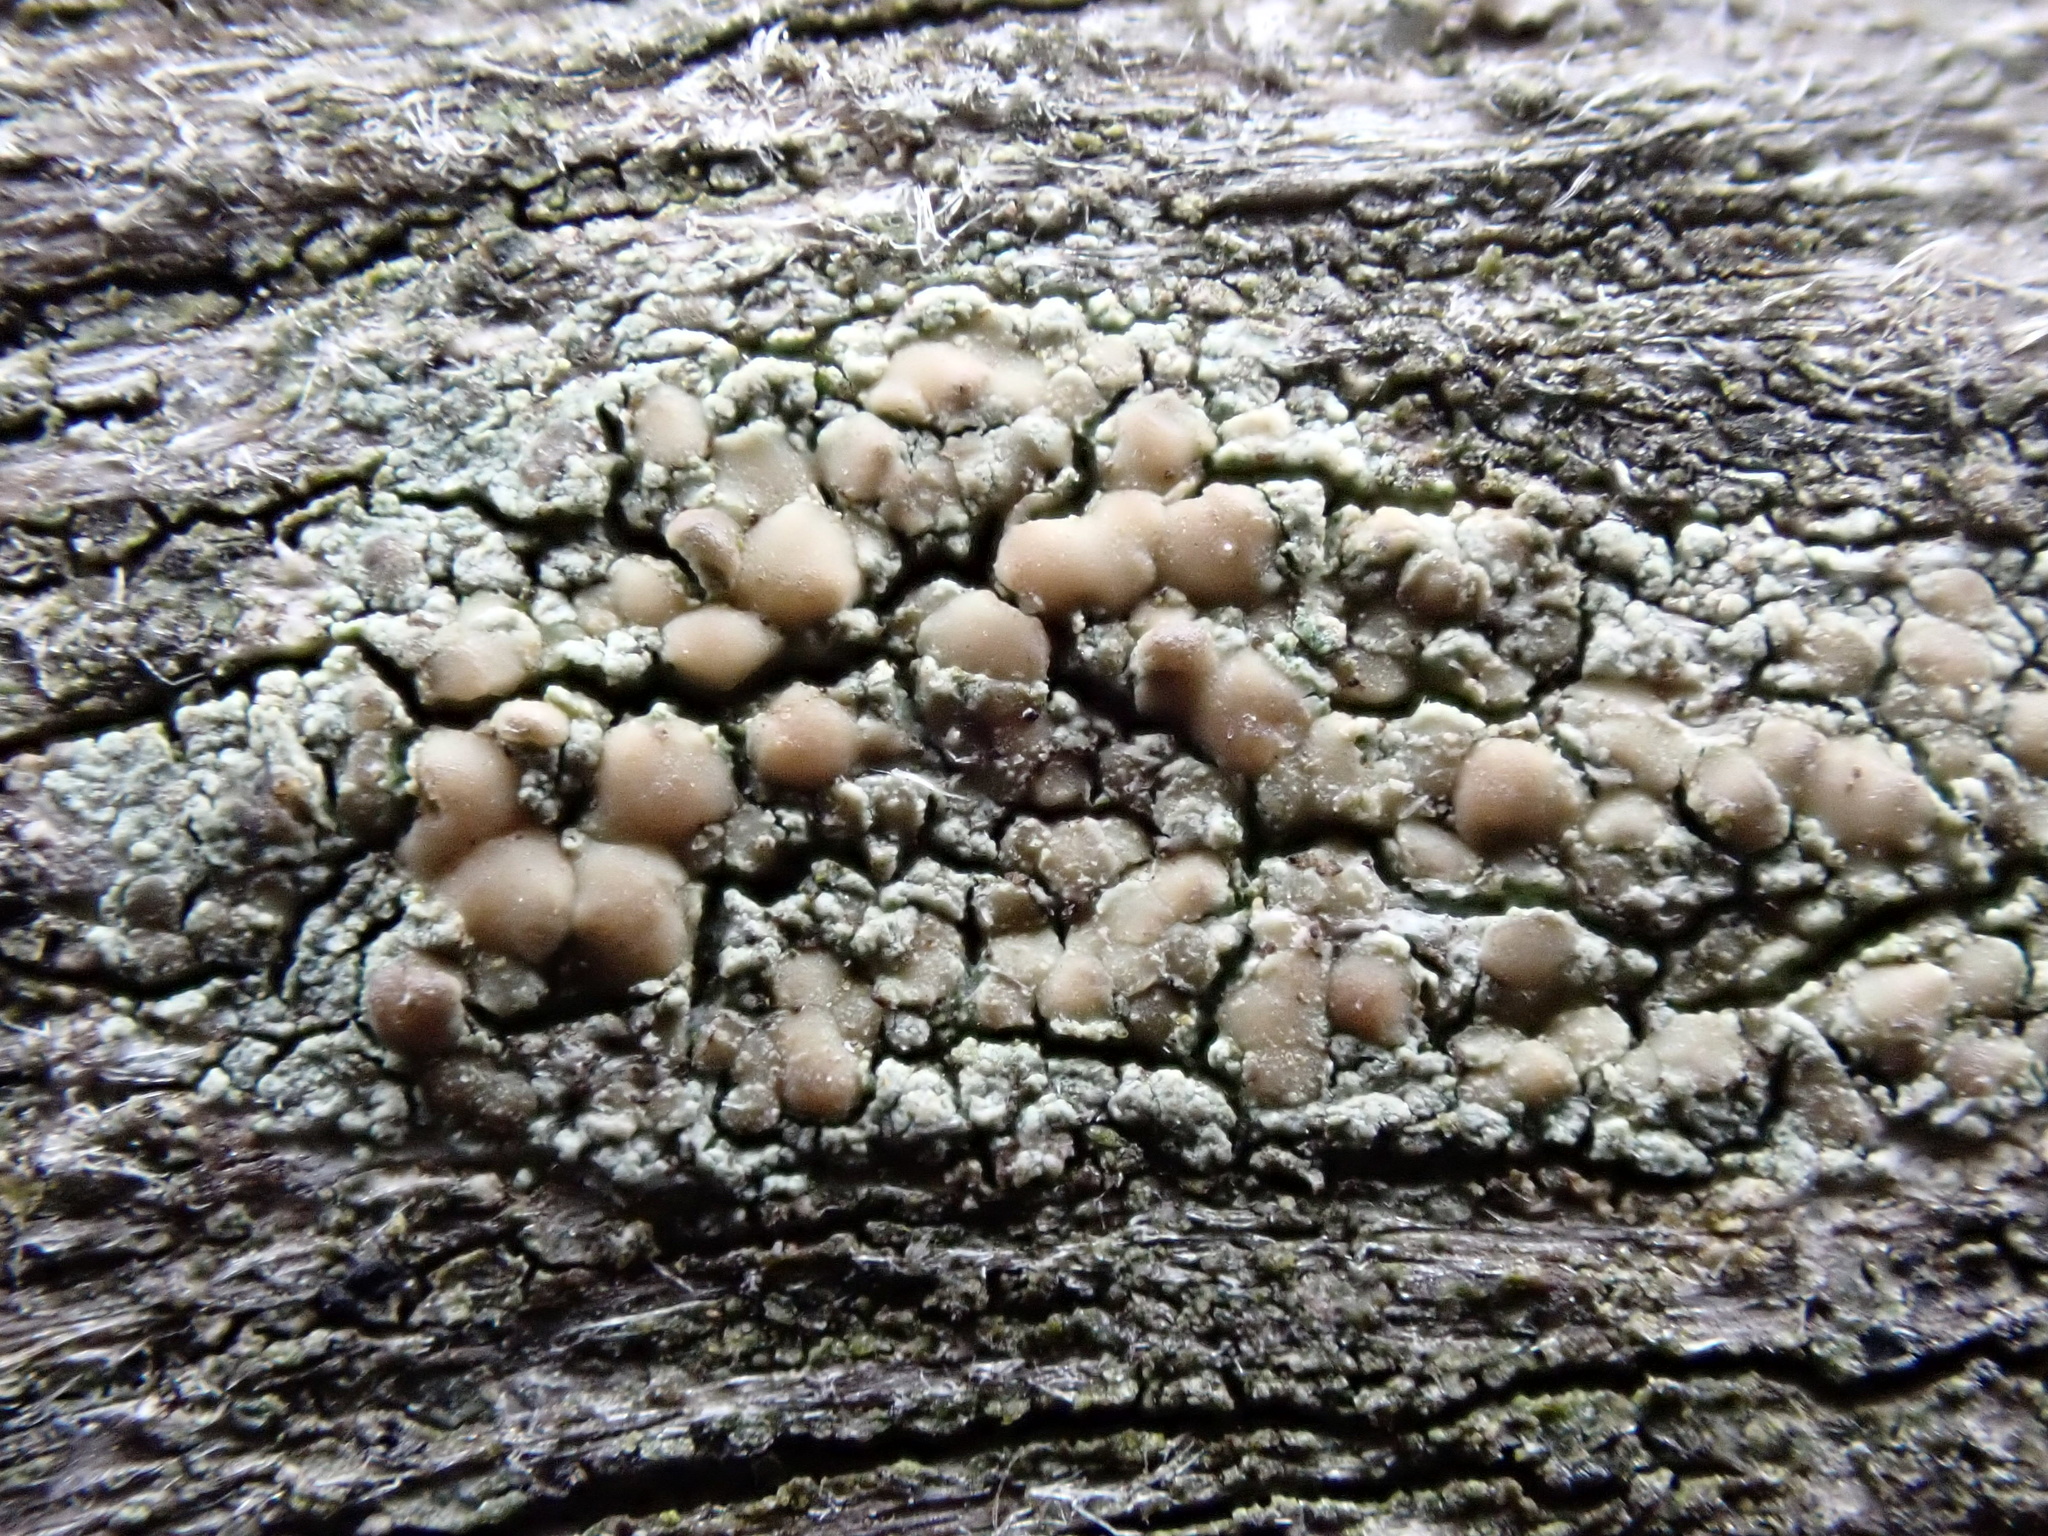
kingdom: Fungi
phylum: Ascomycota
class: Lecanoromycetes
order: Lecanorales
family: Lecanoraceae
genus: Lecanora
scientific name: Lecanora symmicta
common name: Fused rim lichen
